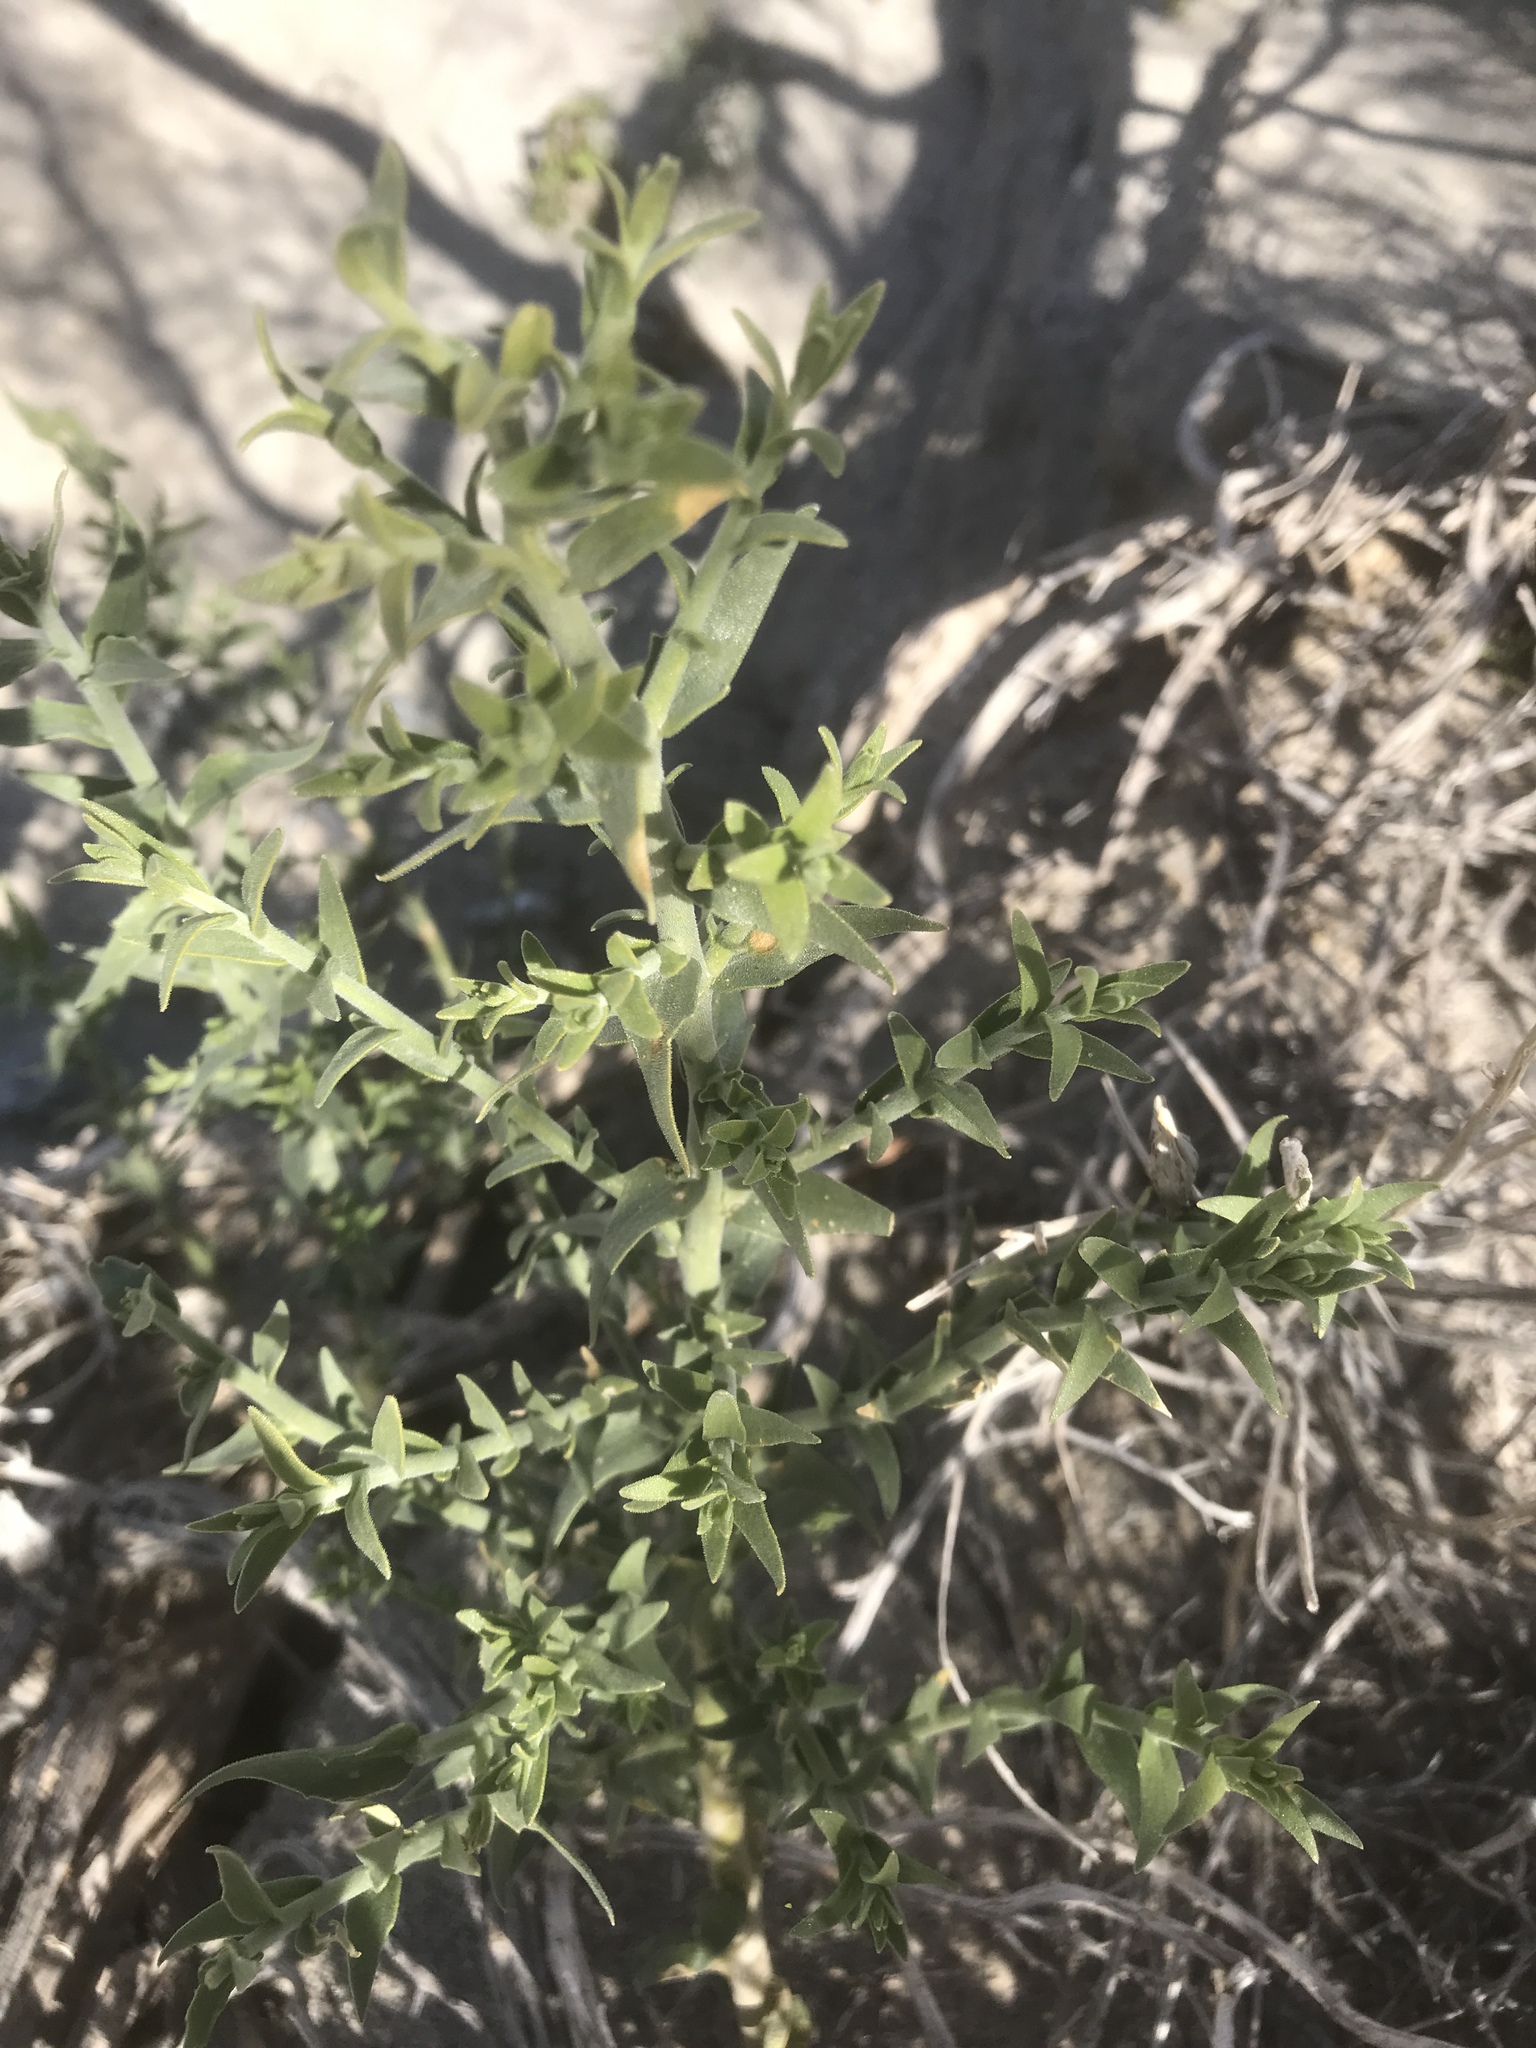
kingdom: Plantae
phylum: Tracheophyta
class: Magnoliopsida
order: Cornales
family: Loasaceae
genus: Petalonyx
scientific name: Petalonyx thurberi
